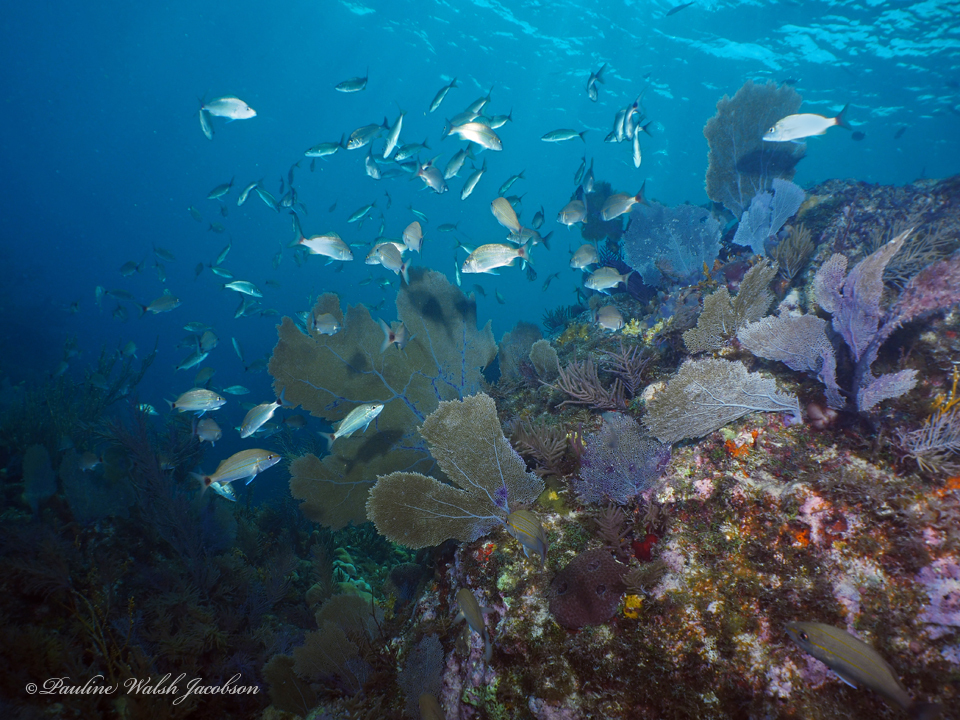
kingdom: Animalia
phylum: Chordata
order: Perciformes
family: Haemulidae
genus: Haemulon
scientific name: Haemulon aurolineatum
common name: Tomtate
